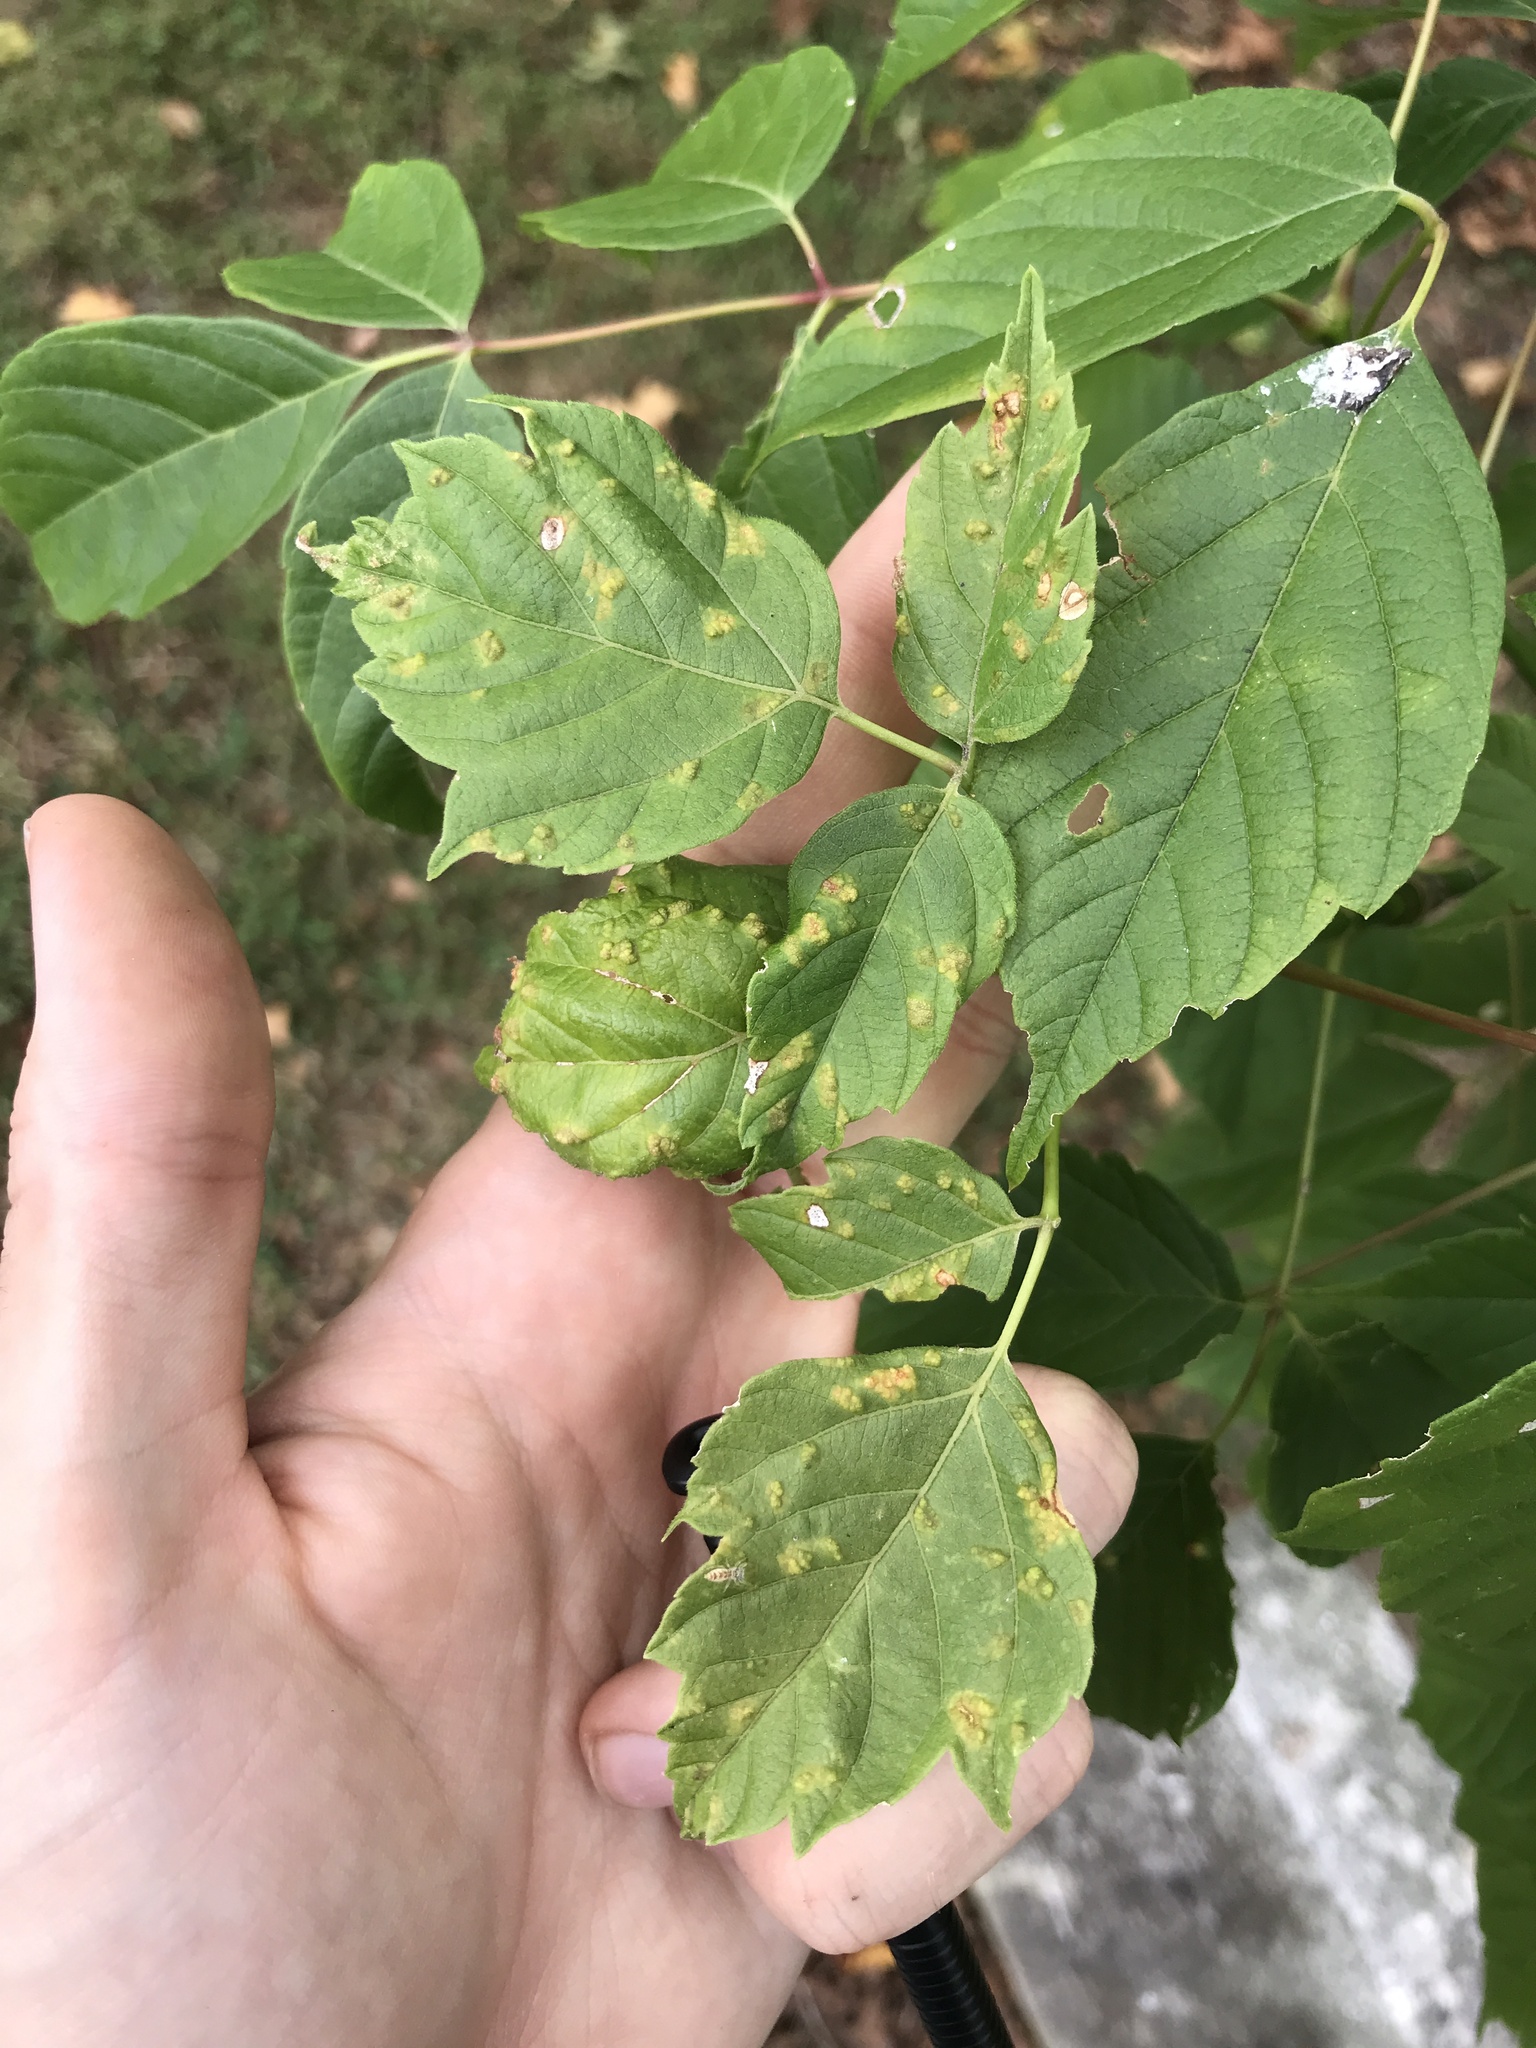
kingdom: Animalia
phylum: Arthropoda
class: Arachnida
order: Trombidiformes
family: Eriophyidae
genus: Aceria
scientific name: Aceria
